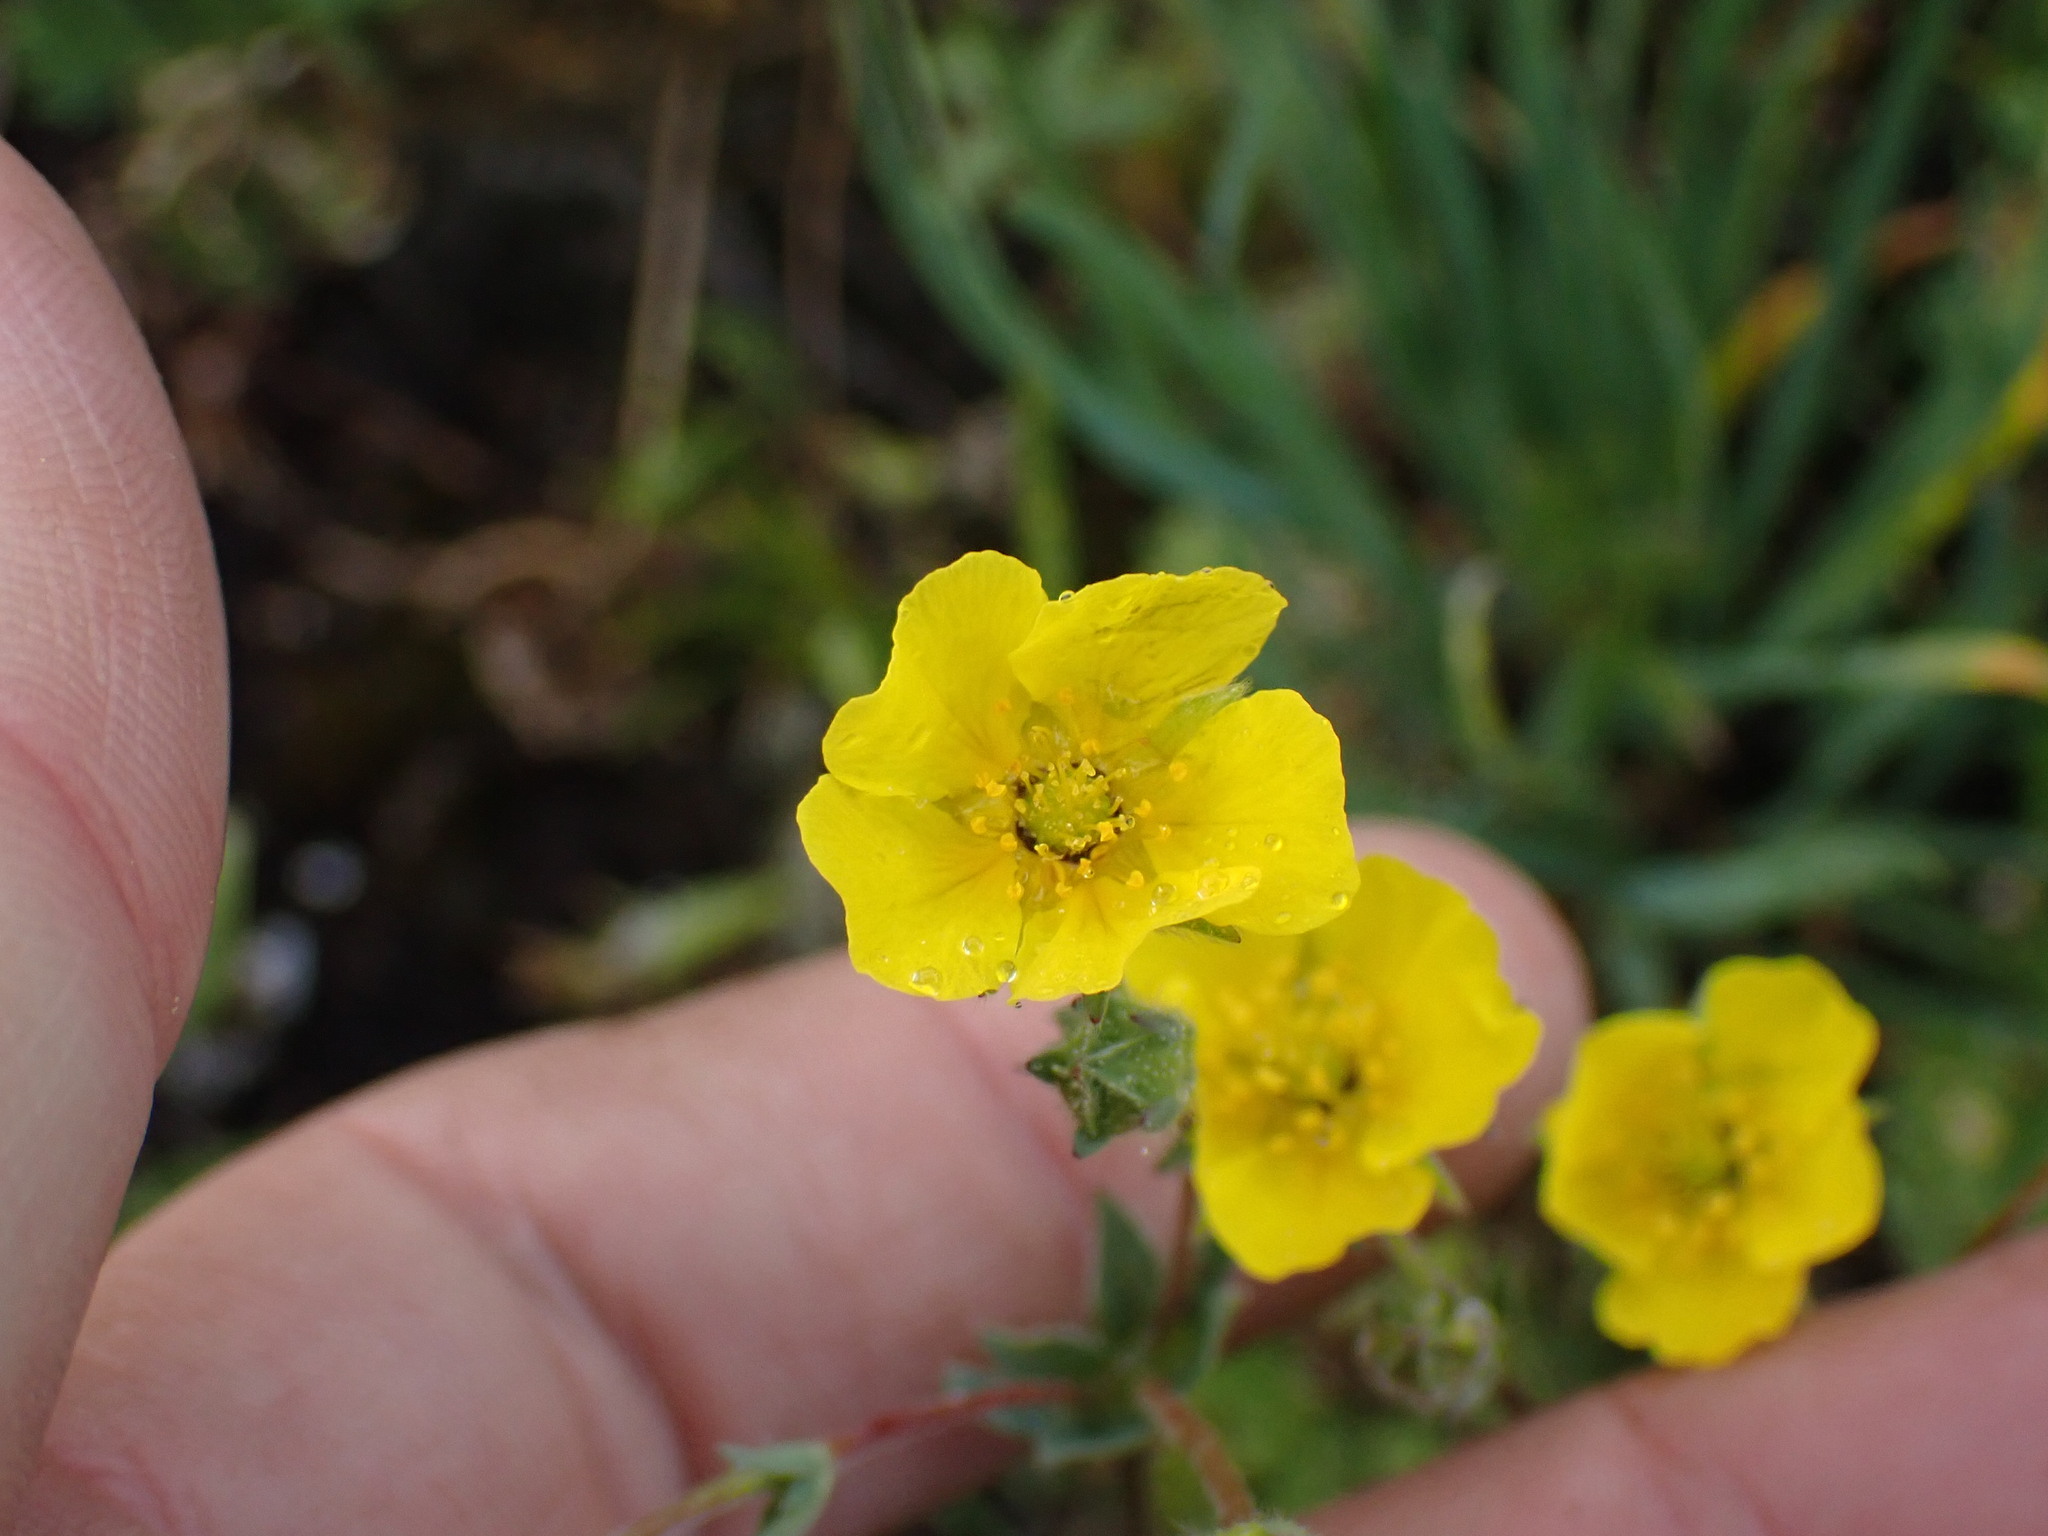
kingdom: Plantae
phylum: Tracheophyta
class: Magnoliopsida
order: Rosales
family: Rosaceae
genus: Potentilla
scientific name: Potentilla glaucophylla
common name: Blue-leaved cinquefoil
